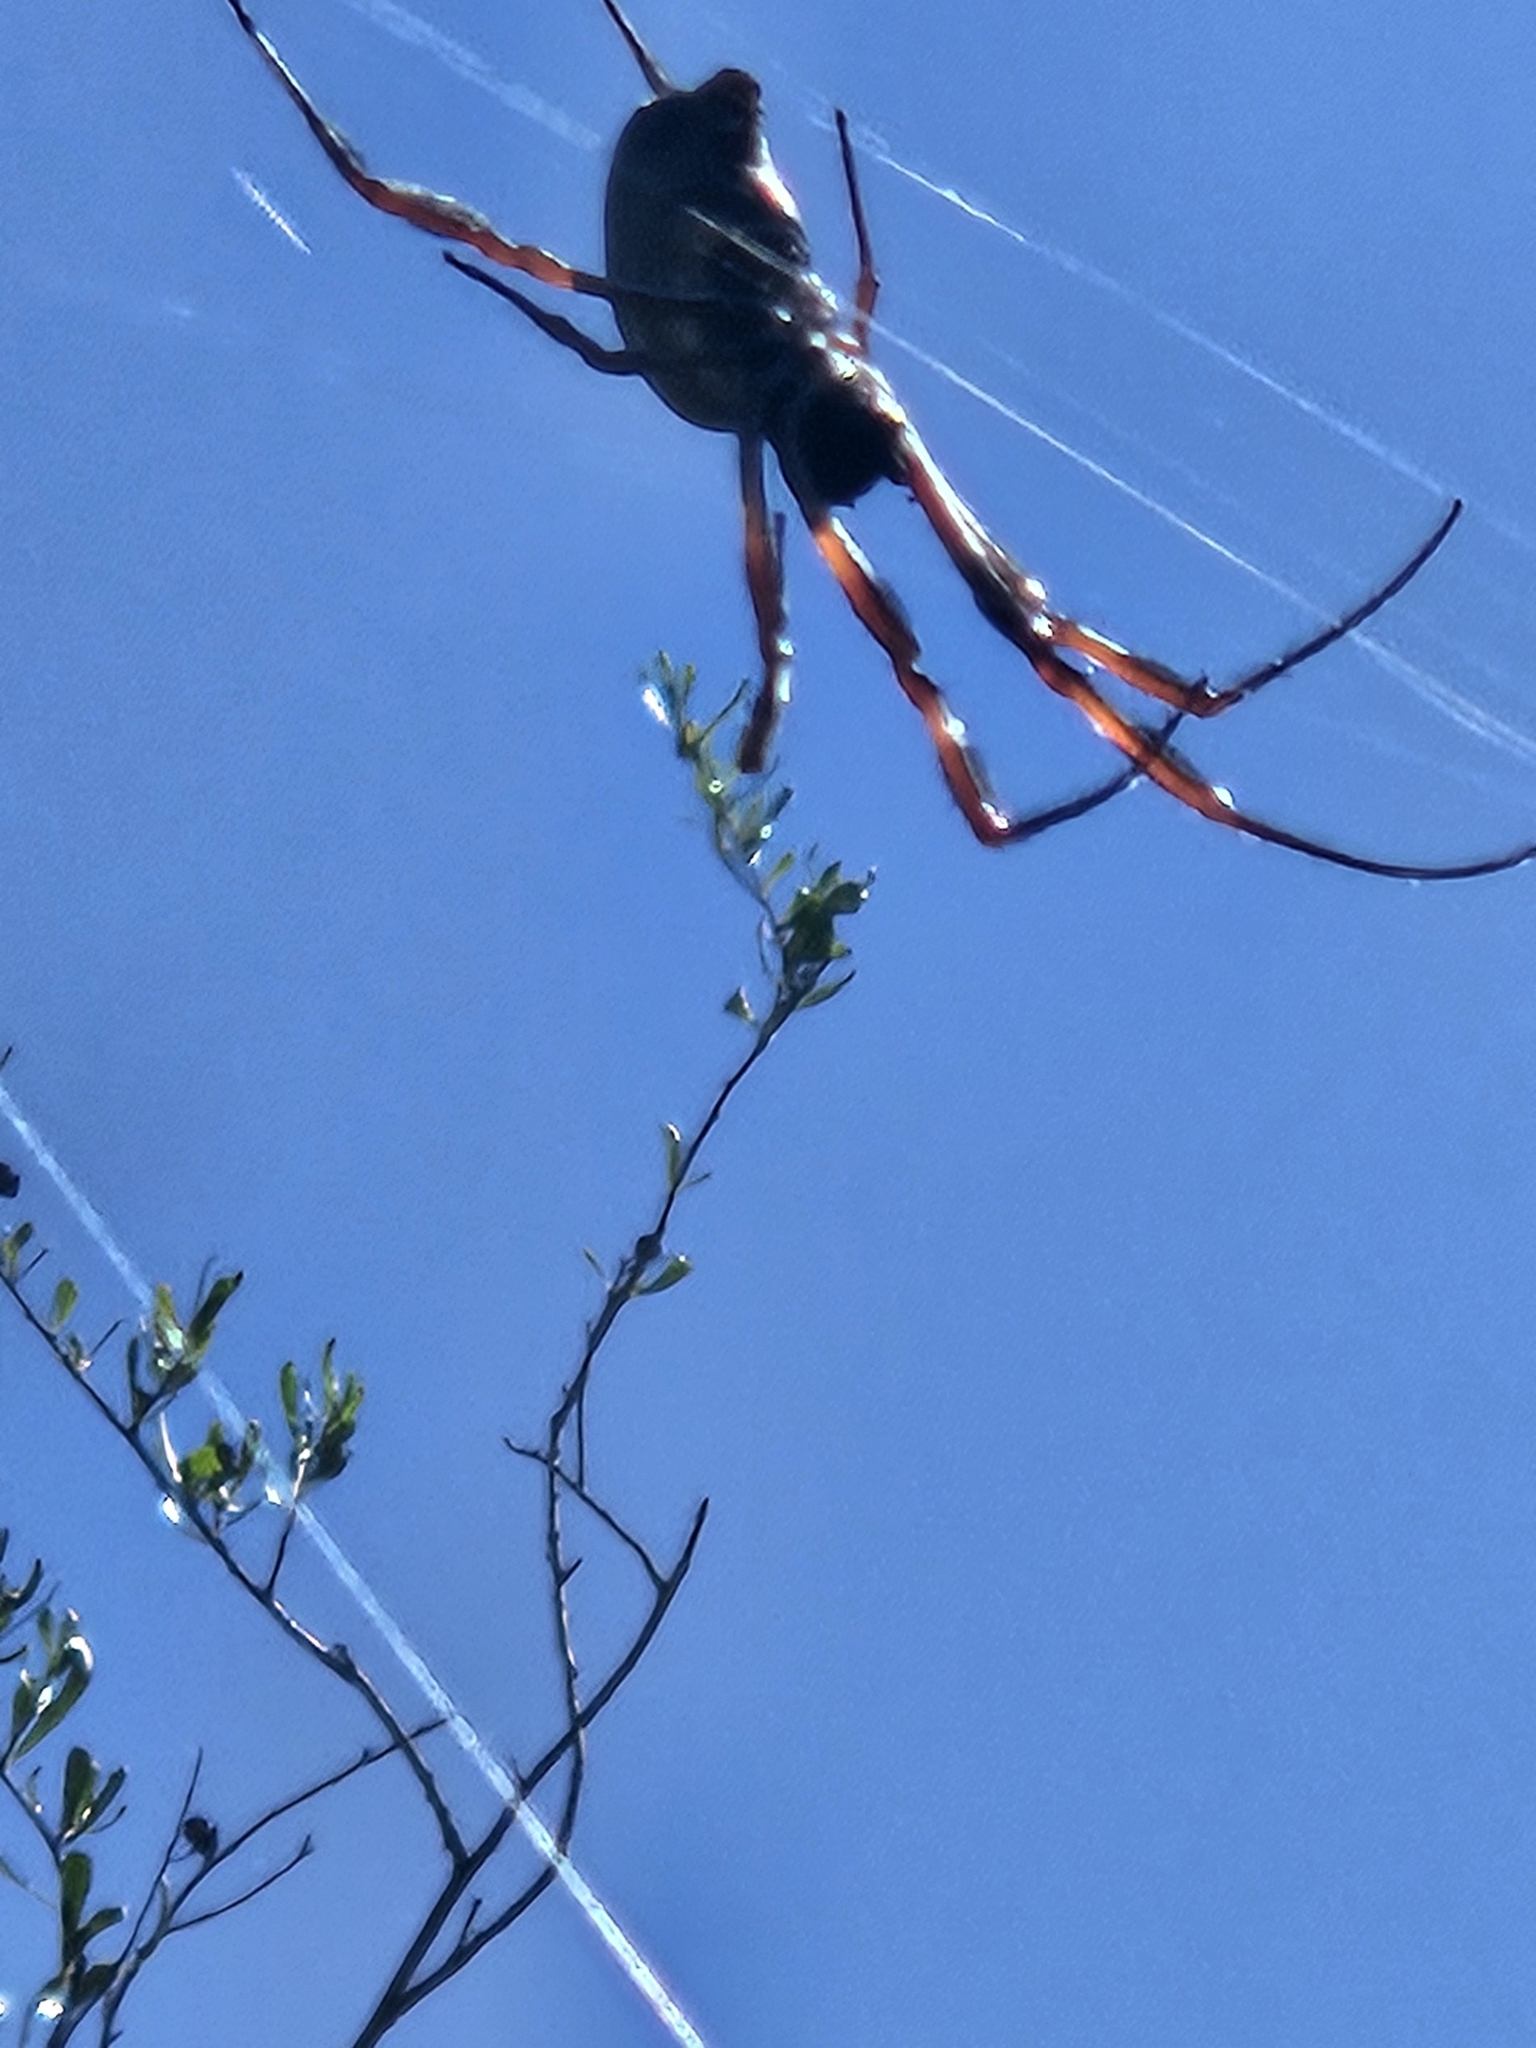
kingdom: Animalia
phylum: Arthropoda
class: Arachnida
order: Araneae
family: Araneidae
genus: Trichonephila
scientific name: Trichonephila edulis
